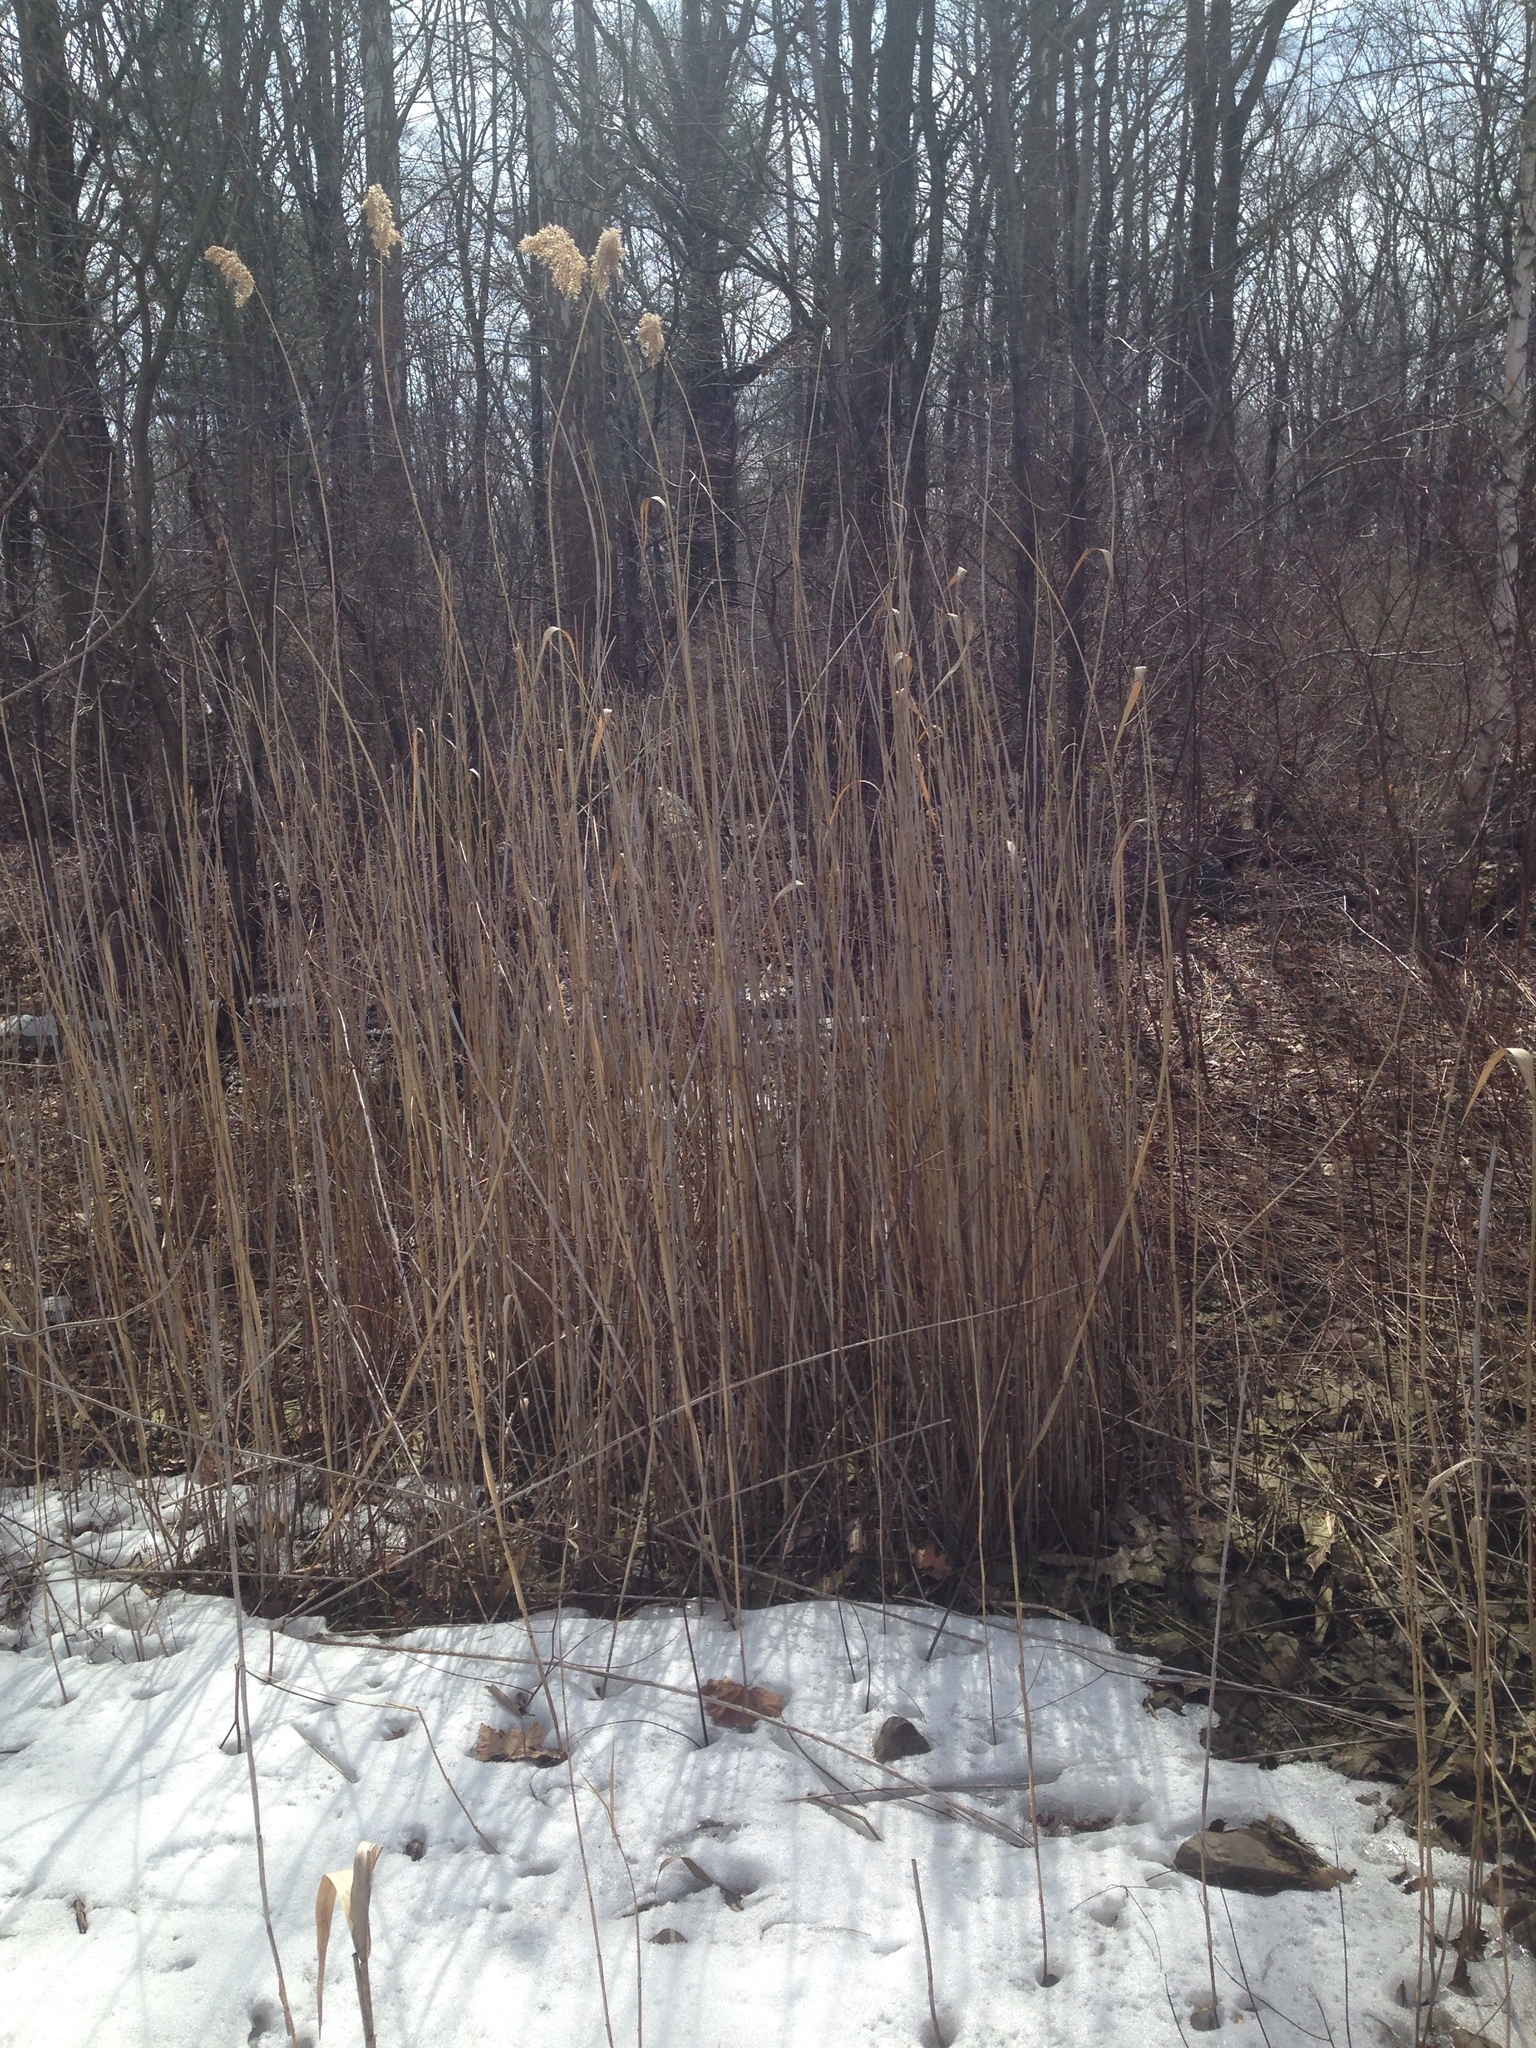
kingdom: Plantae
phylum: Tracheophyta
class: Liliopsida
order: Poales
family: Poaceae
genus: Phragmites
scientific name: Phragmites australis
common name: Common reed
